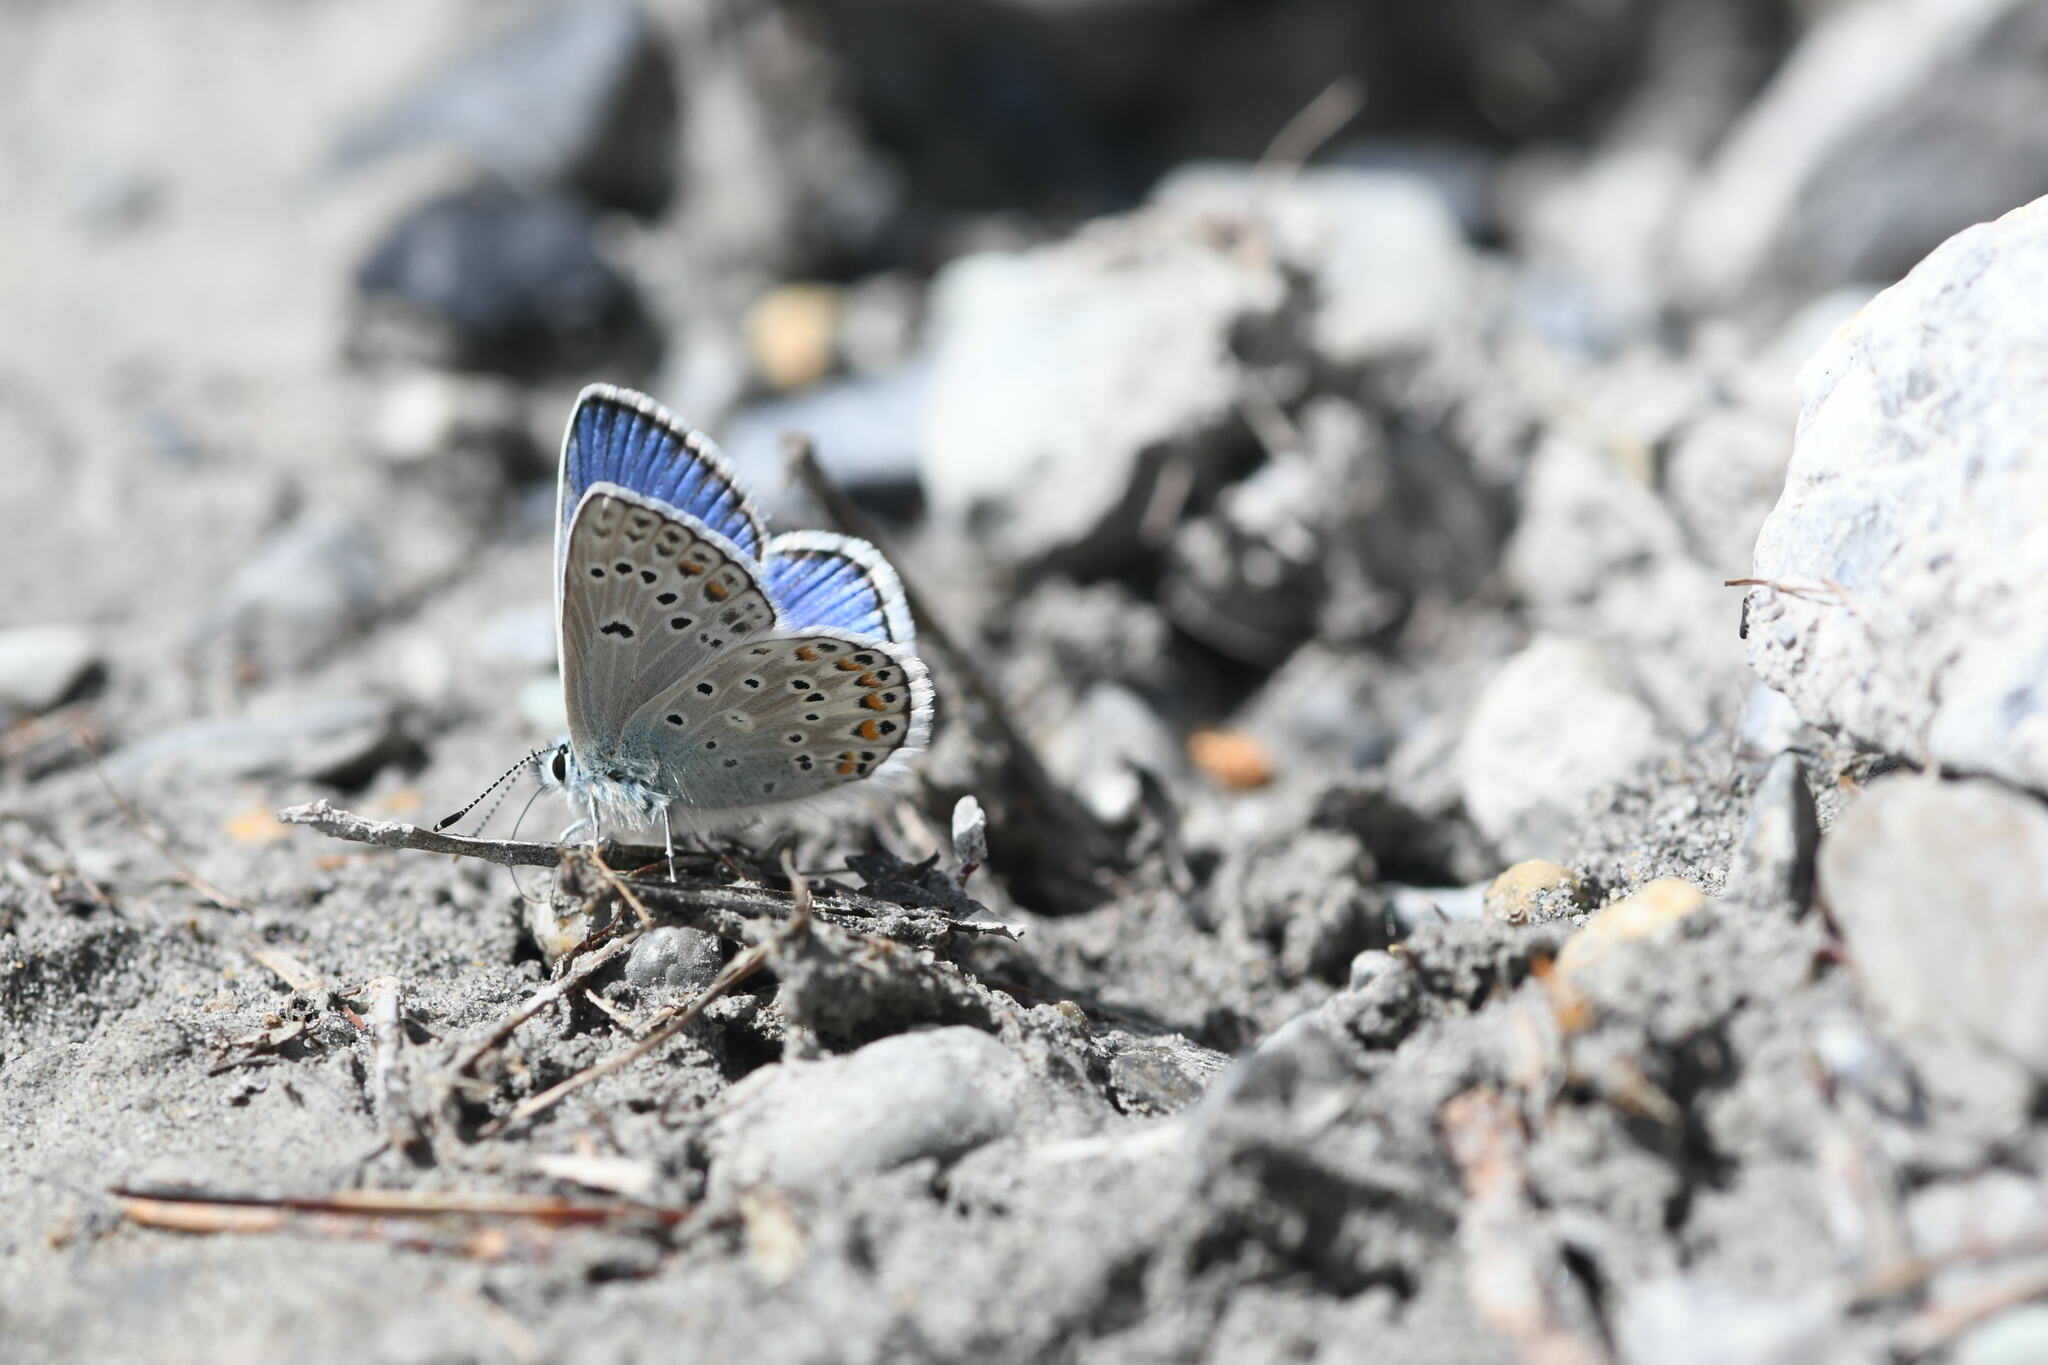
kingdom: Animalia
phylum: Arthropoda
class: Insecta
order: Lepidoptera
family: Lycaenidae
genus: Plebicula
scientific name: Plebicula escheri
